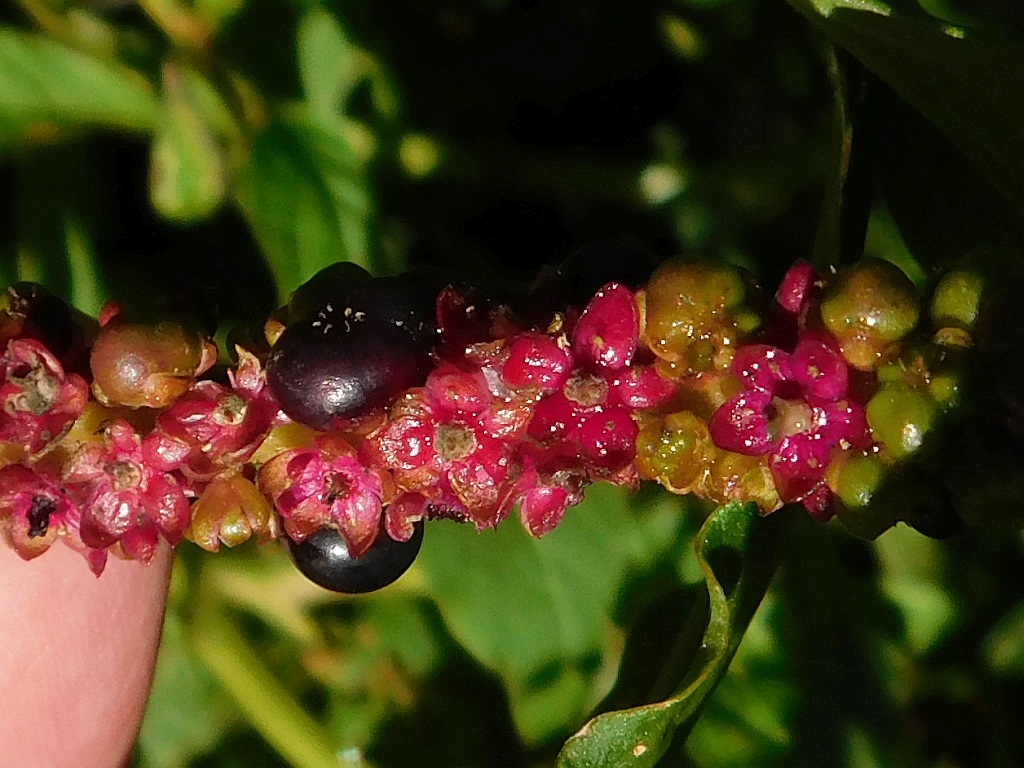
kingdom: Plantae
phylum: Tracheophyta
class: Magnoliopsida
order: Caryophyllales
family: Phytolaccaceae
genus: Phytolacca
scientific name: Phytolacca icosandra
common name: Button pokeweed
